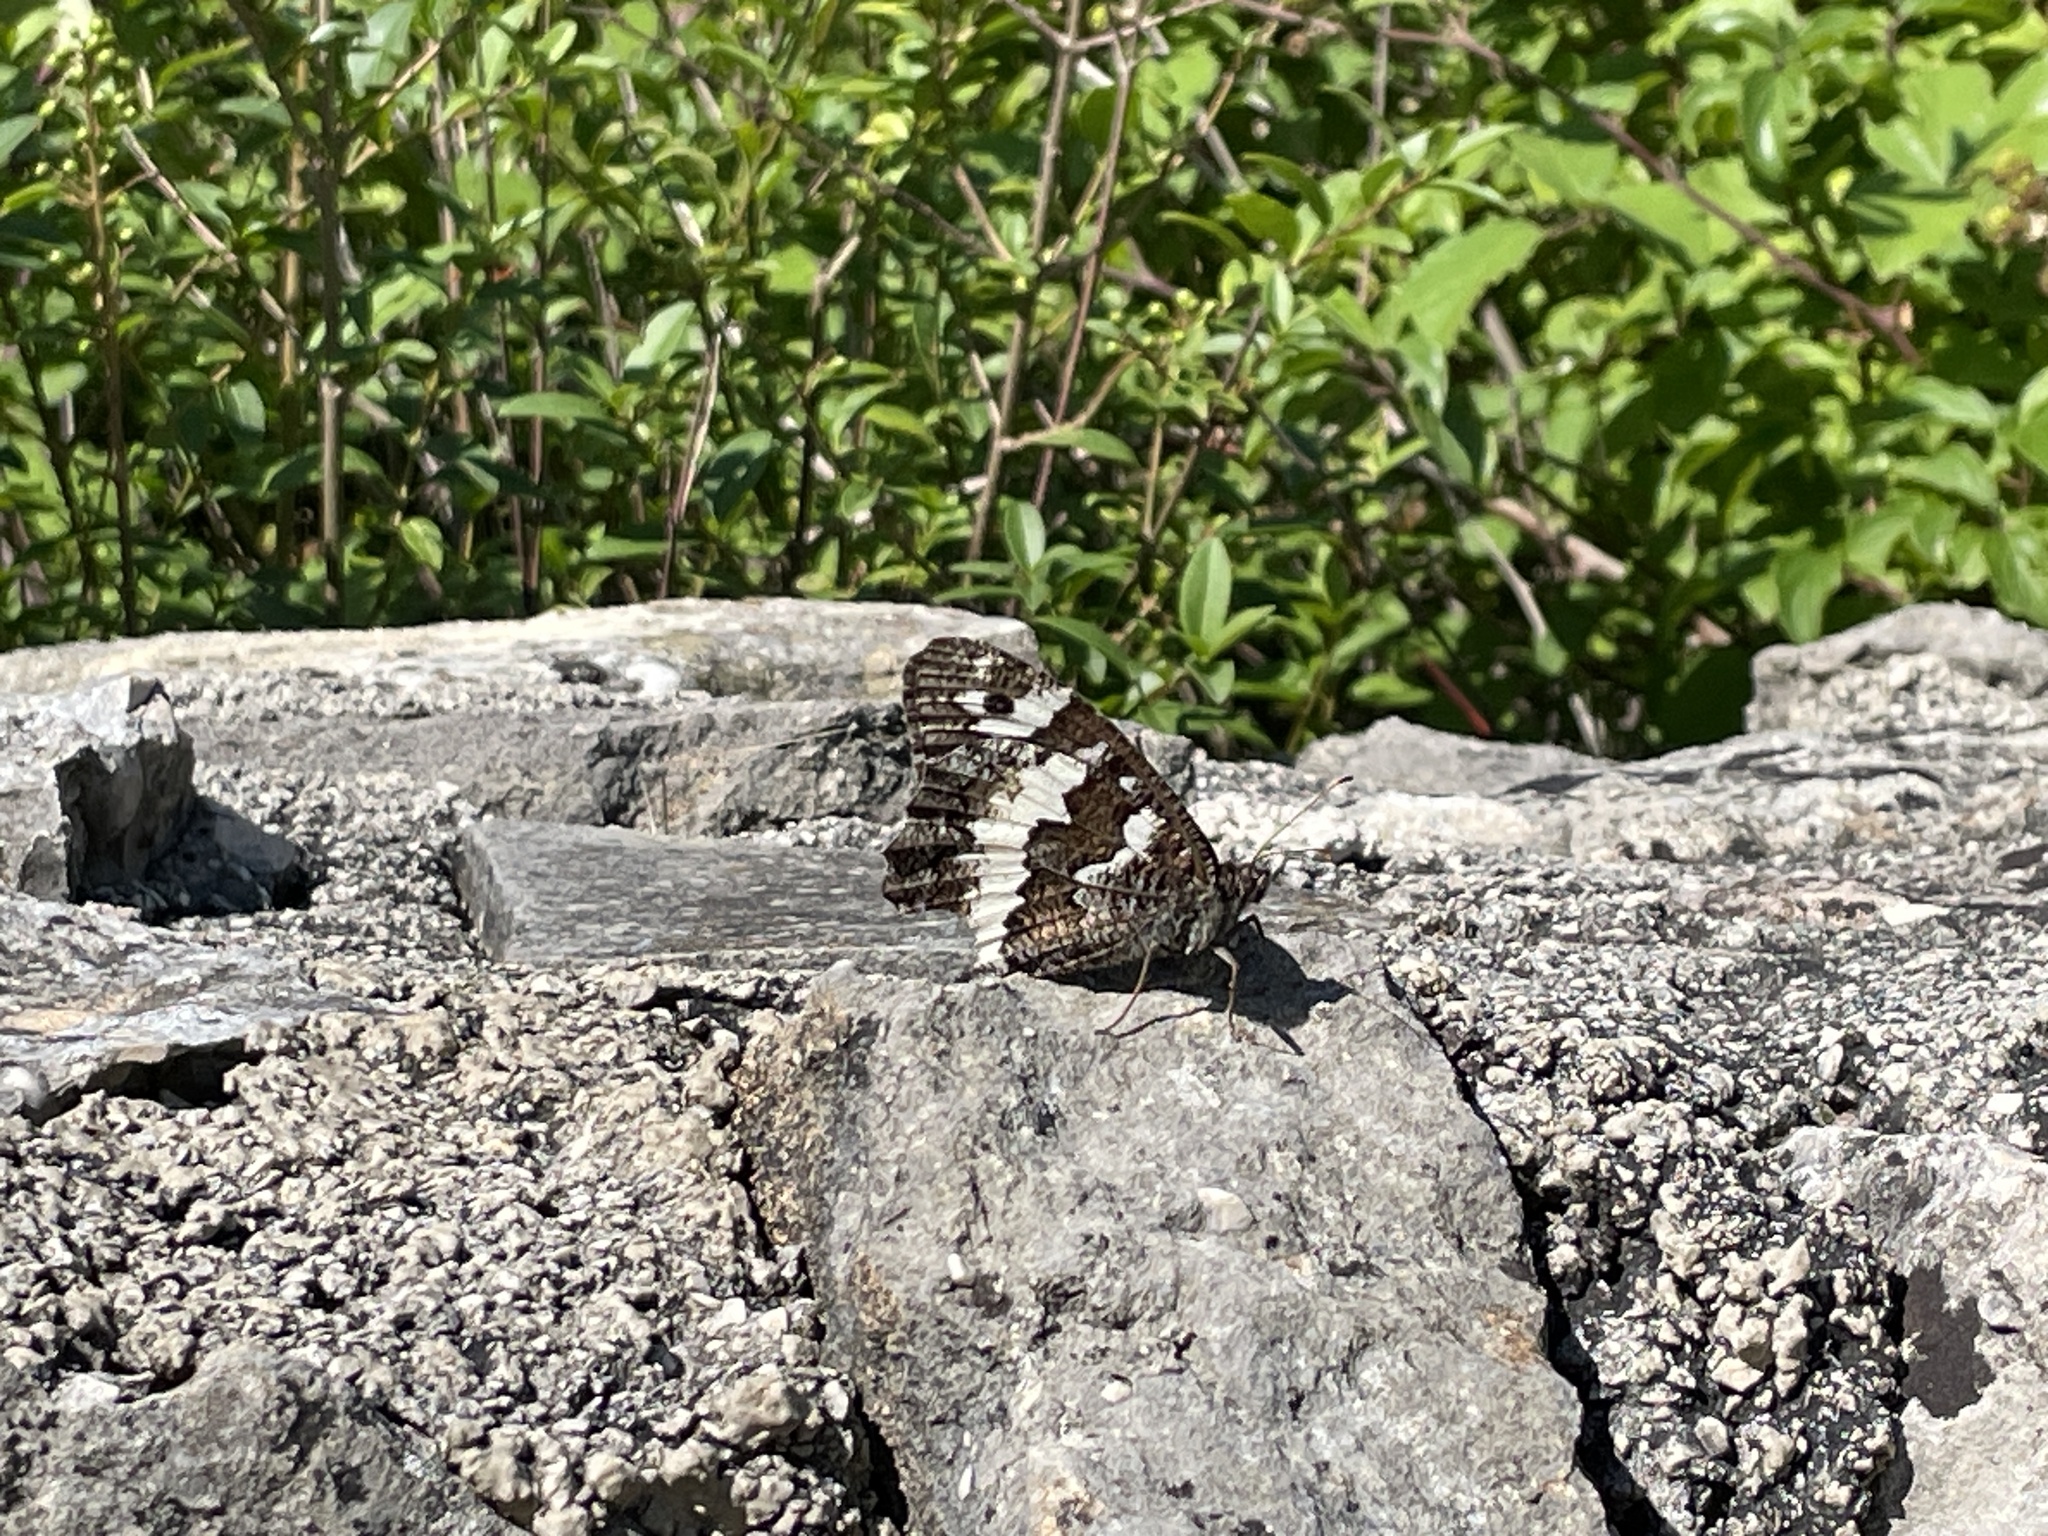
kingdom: Animalia
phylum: Arthropoda
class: Insecta
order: Lepidoptera
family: Lycaenidae
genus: Loweia
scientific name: Loweia tityrus
